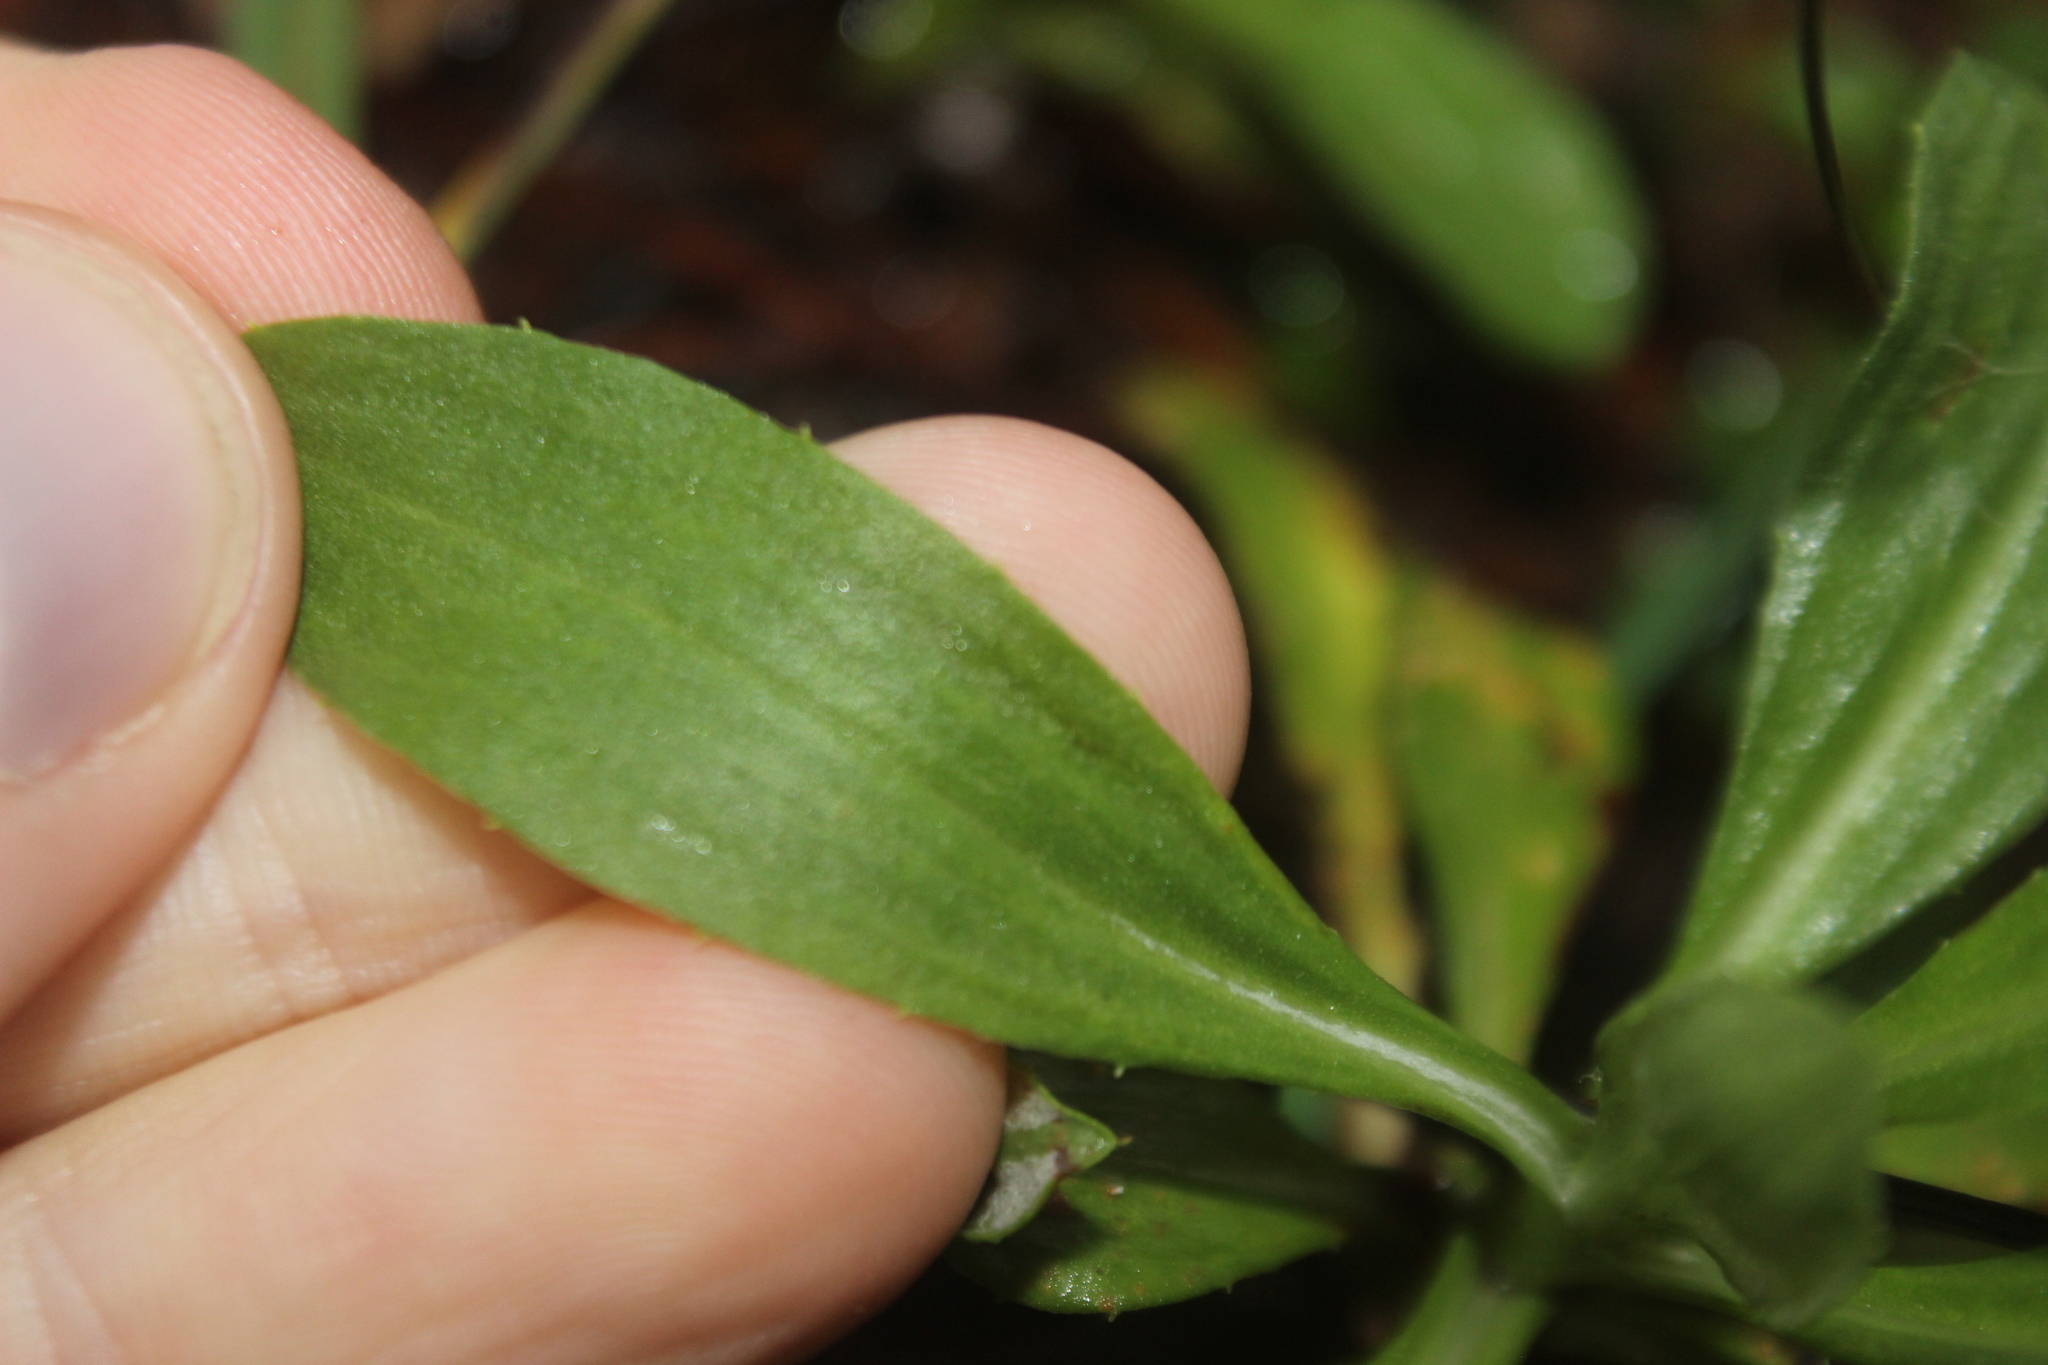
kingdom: Plantae
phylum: Tracheophyta
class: Magnoliopsida
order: Asterales
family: Asteraceae
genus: Celmisia
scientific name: Celmisia glandulosa
